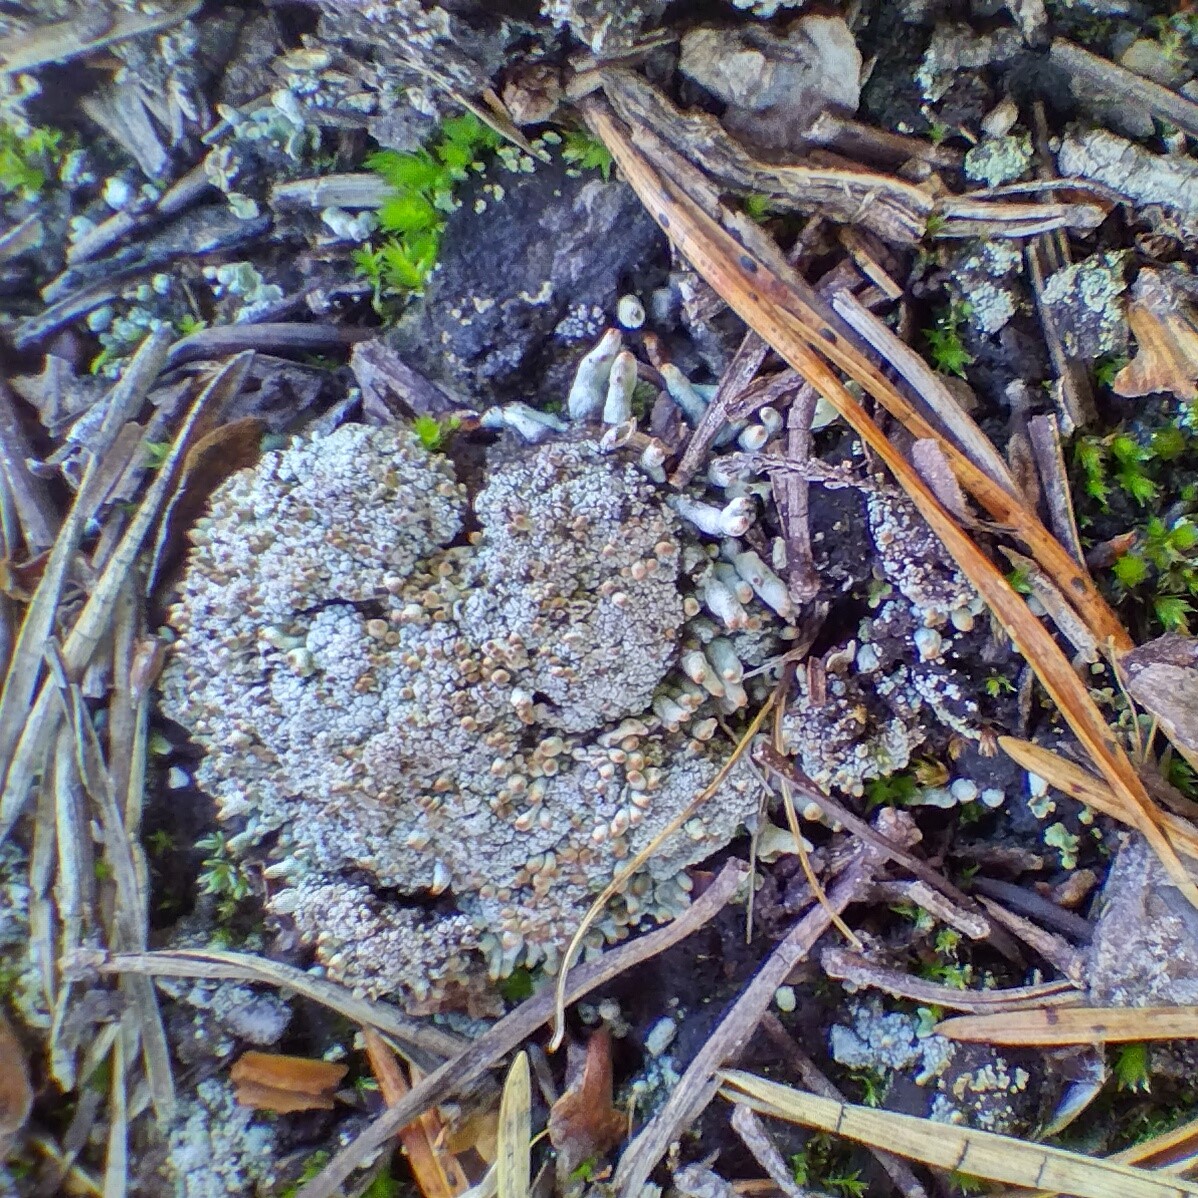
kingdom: Fungi
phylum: Ascomycota
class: Lecanoromycetes
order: Lecanorales
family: Cladoniaceae
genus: Pycnothelia
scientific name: Pycnothelia papillaria
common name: Nipple lichen
